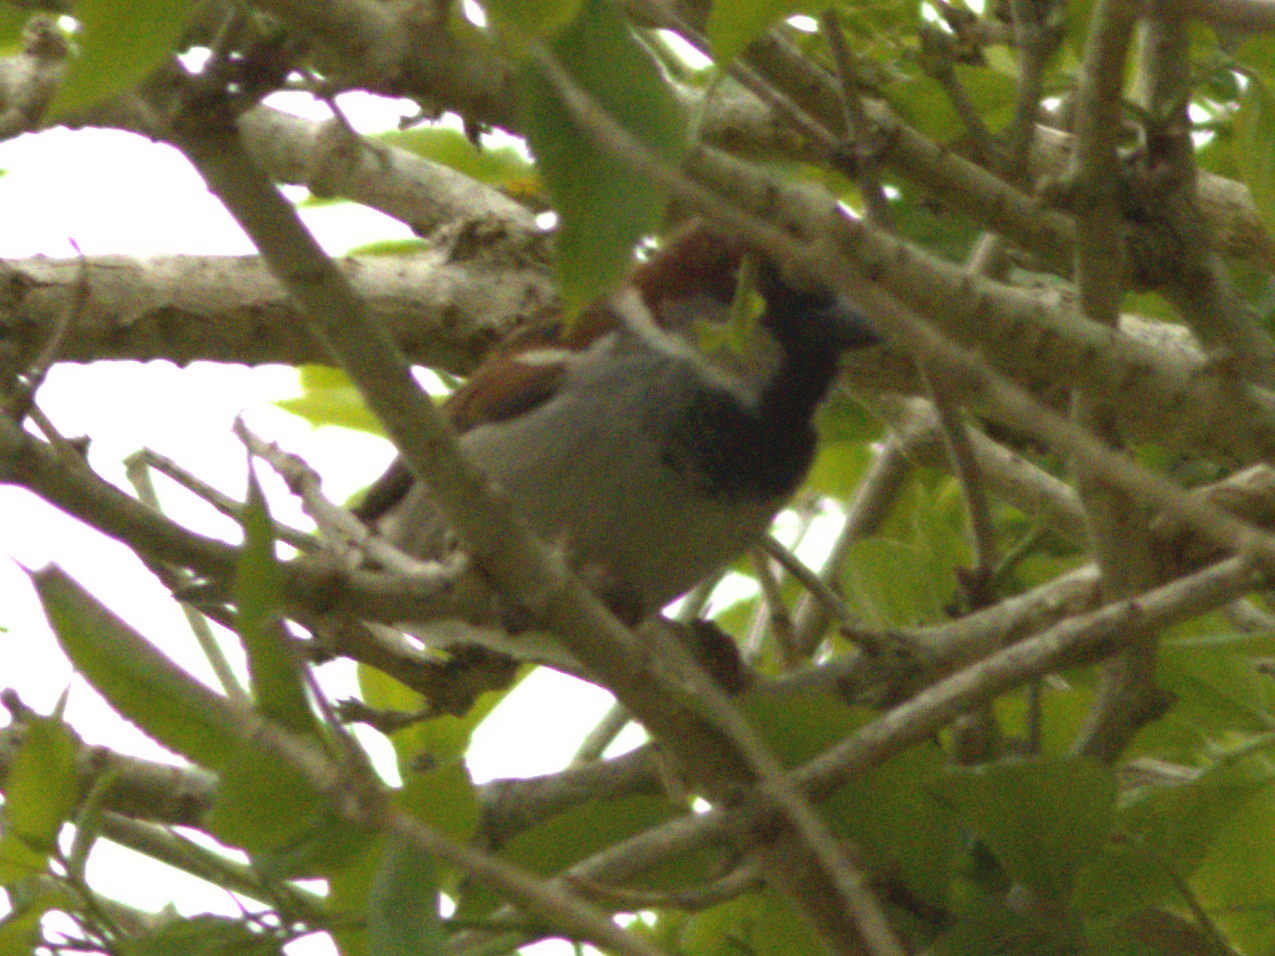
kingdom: Animalia
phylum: Chordata
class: Aves
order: Passeriformes
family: Passeridae
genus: Passer
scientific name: Passer domesticus
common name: House sparrow
